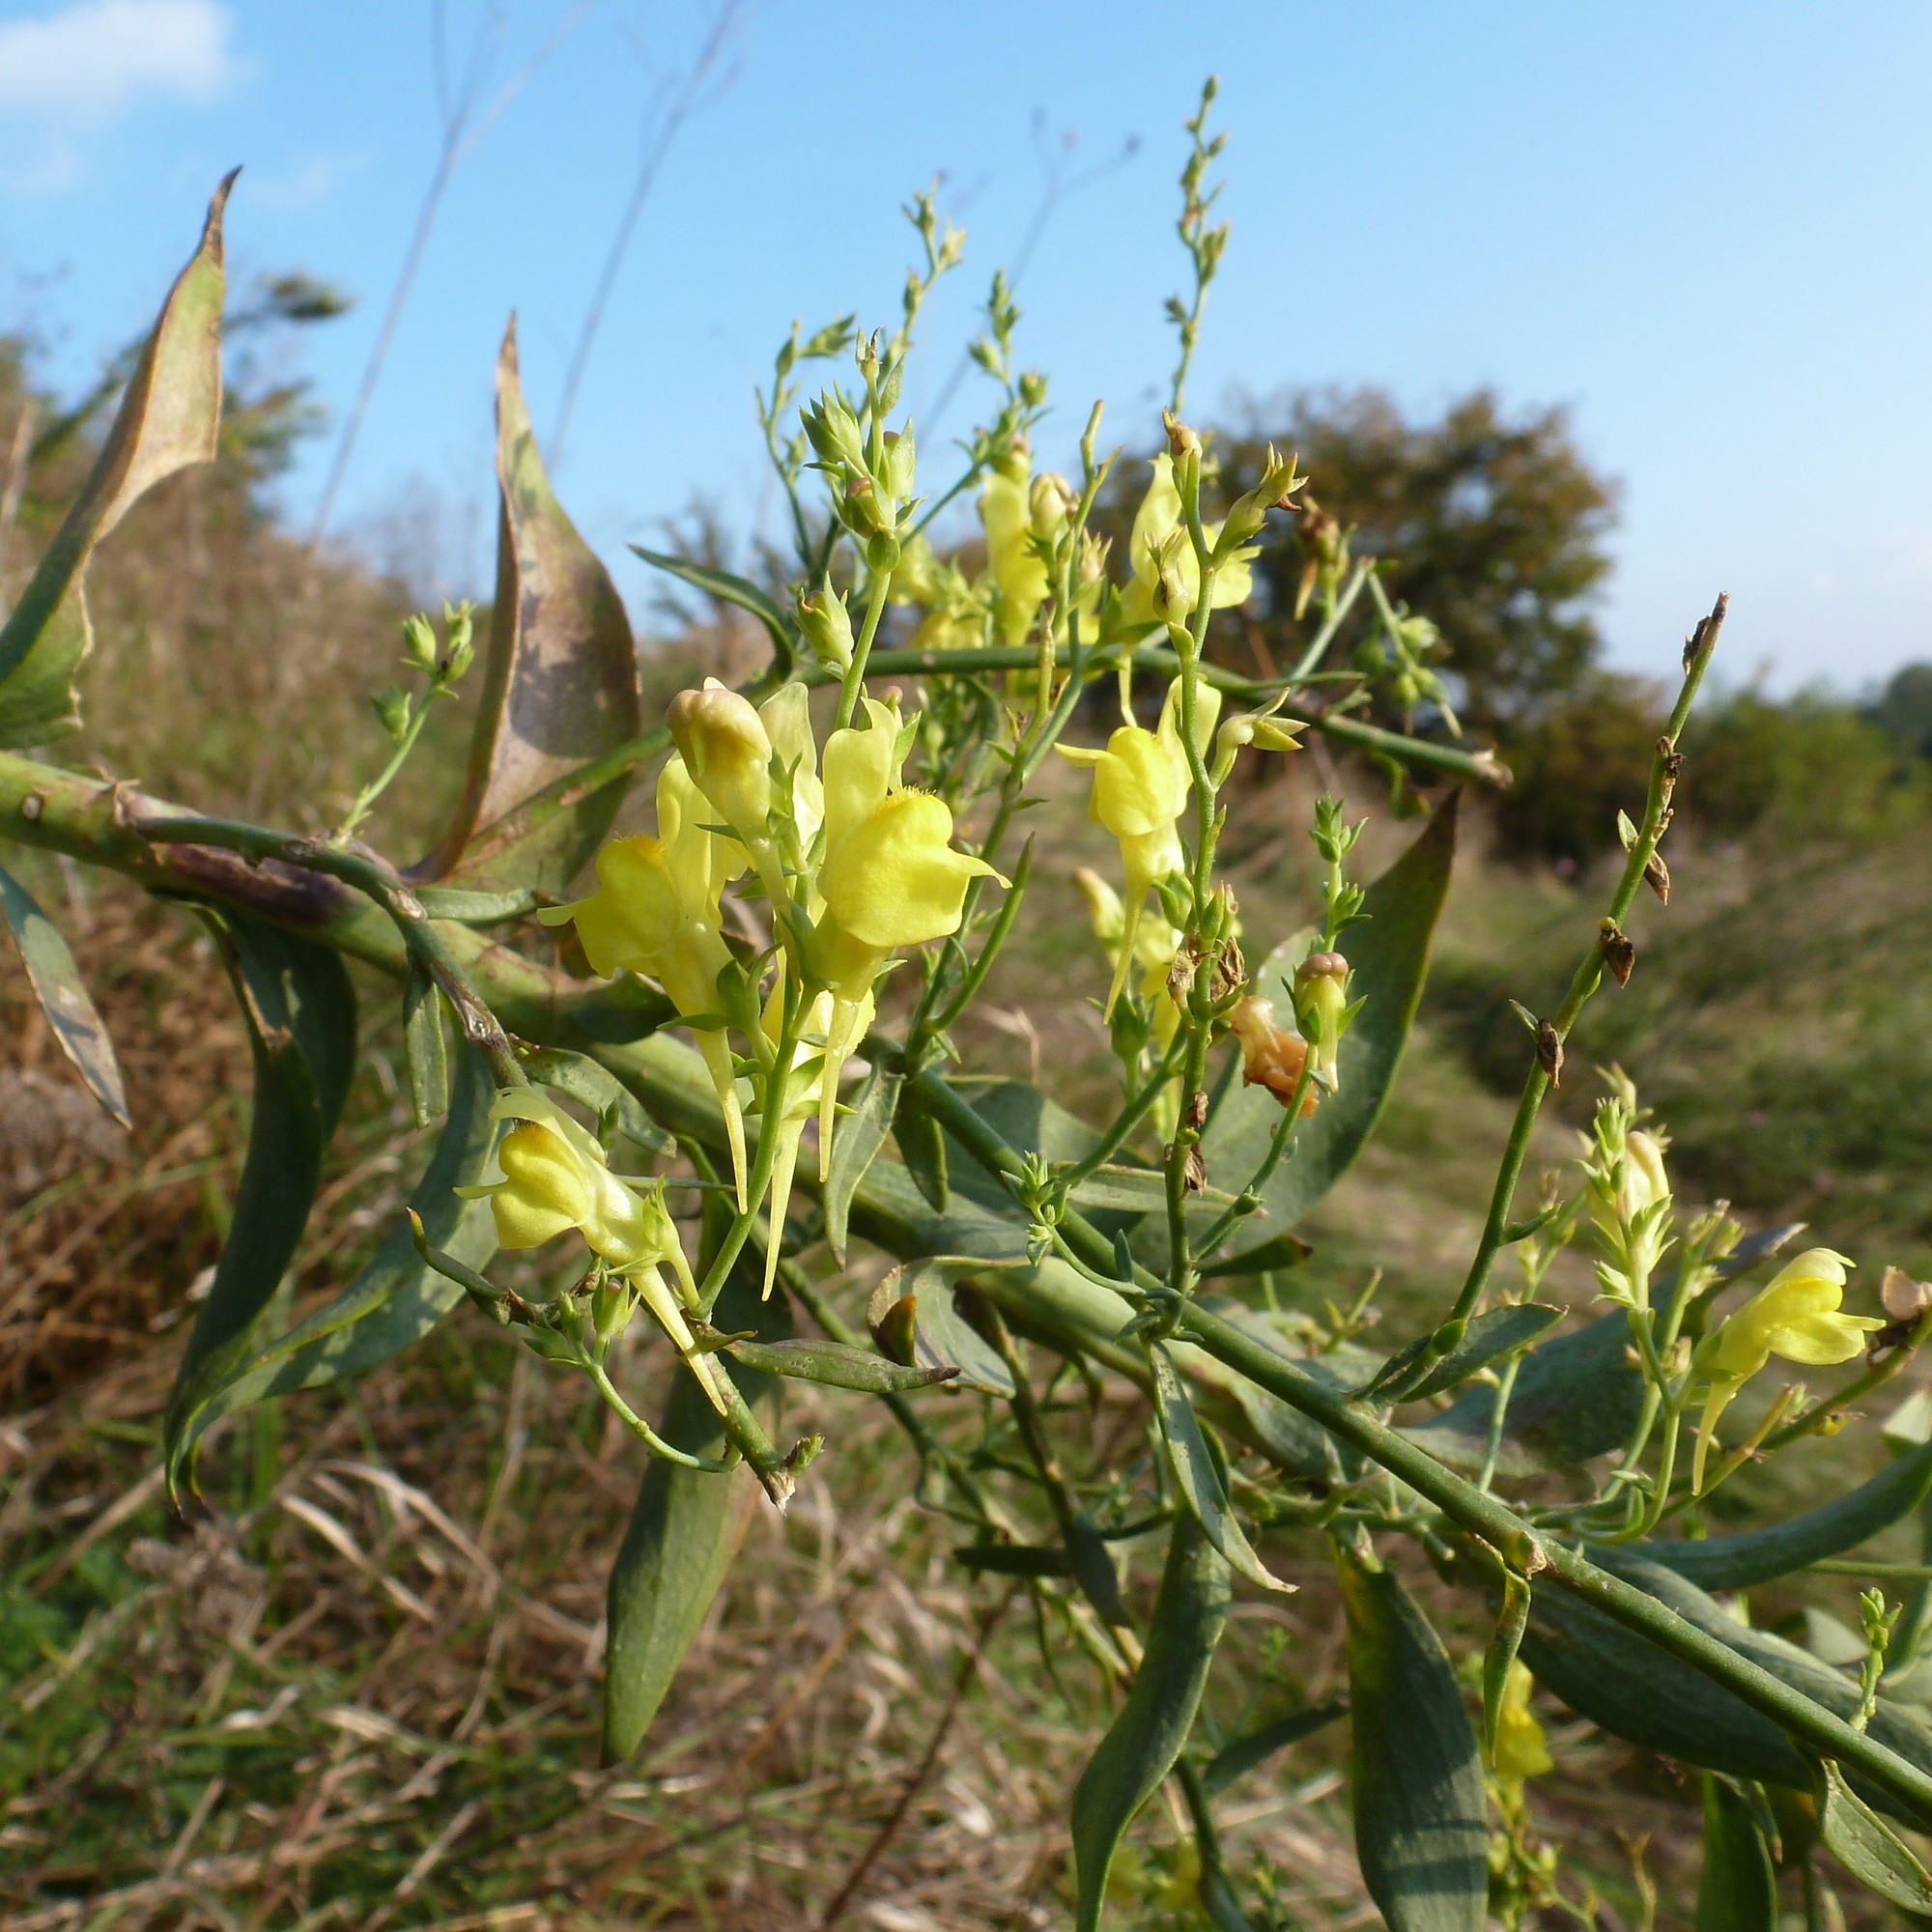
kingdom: Plantae
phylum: Tracheophyta
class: Magnoliopsida
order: Lamiales
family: Plantaginaceae
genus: Linaria
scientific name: Linaria genistifolia
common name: Broomleaf toadflax
